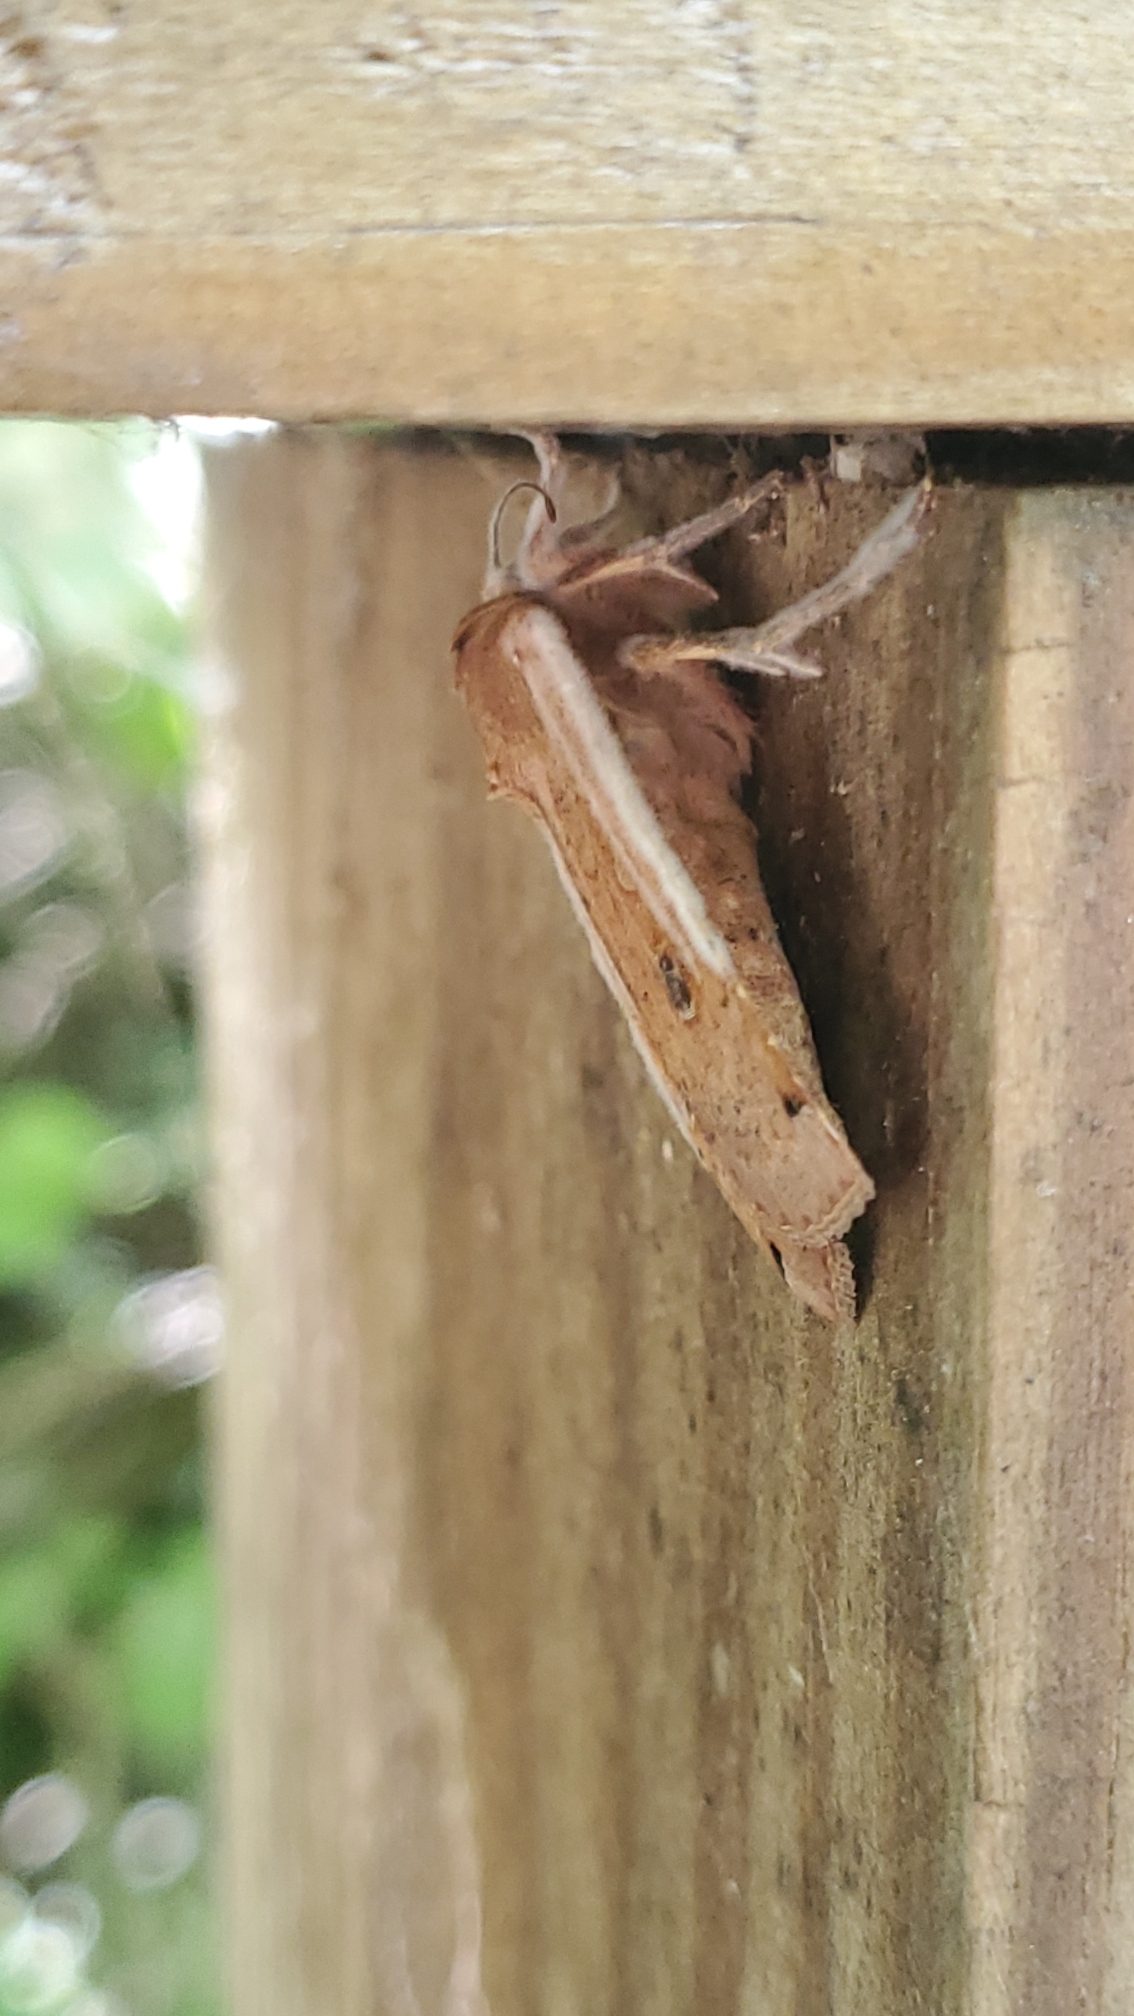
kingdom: Animalia
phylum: Arthropoda
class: Insecta
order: Lepidoptera
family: Noctuidae
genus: Noctua
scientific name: Noctua pronuba
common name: Large yellow underwing
